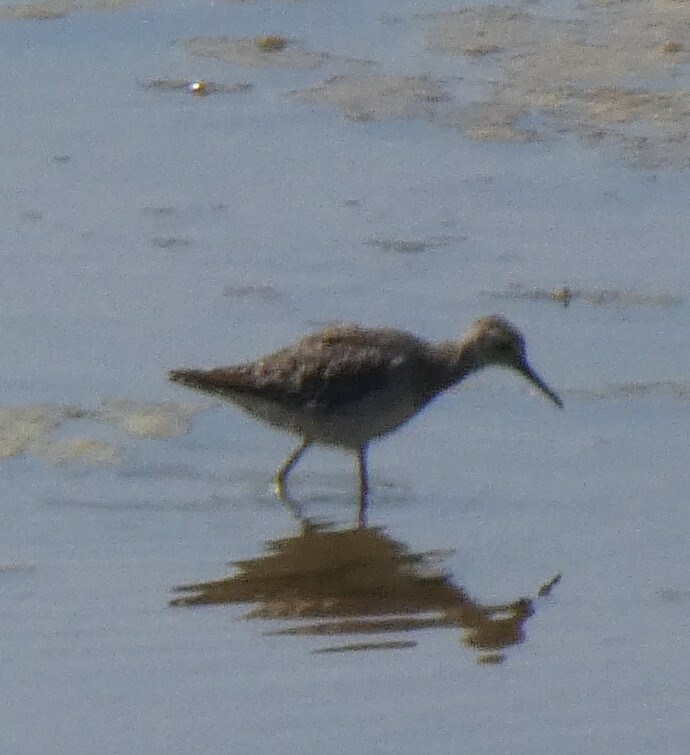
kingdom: Animalia
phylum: Chordata
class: Aves
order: Charadriiformes
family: Scolopacidae
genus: Tringa
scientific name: Tringa glareola
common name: Wood sandpiper
